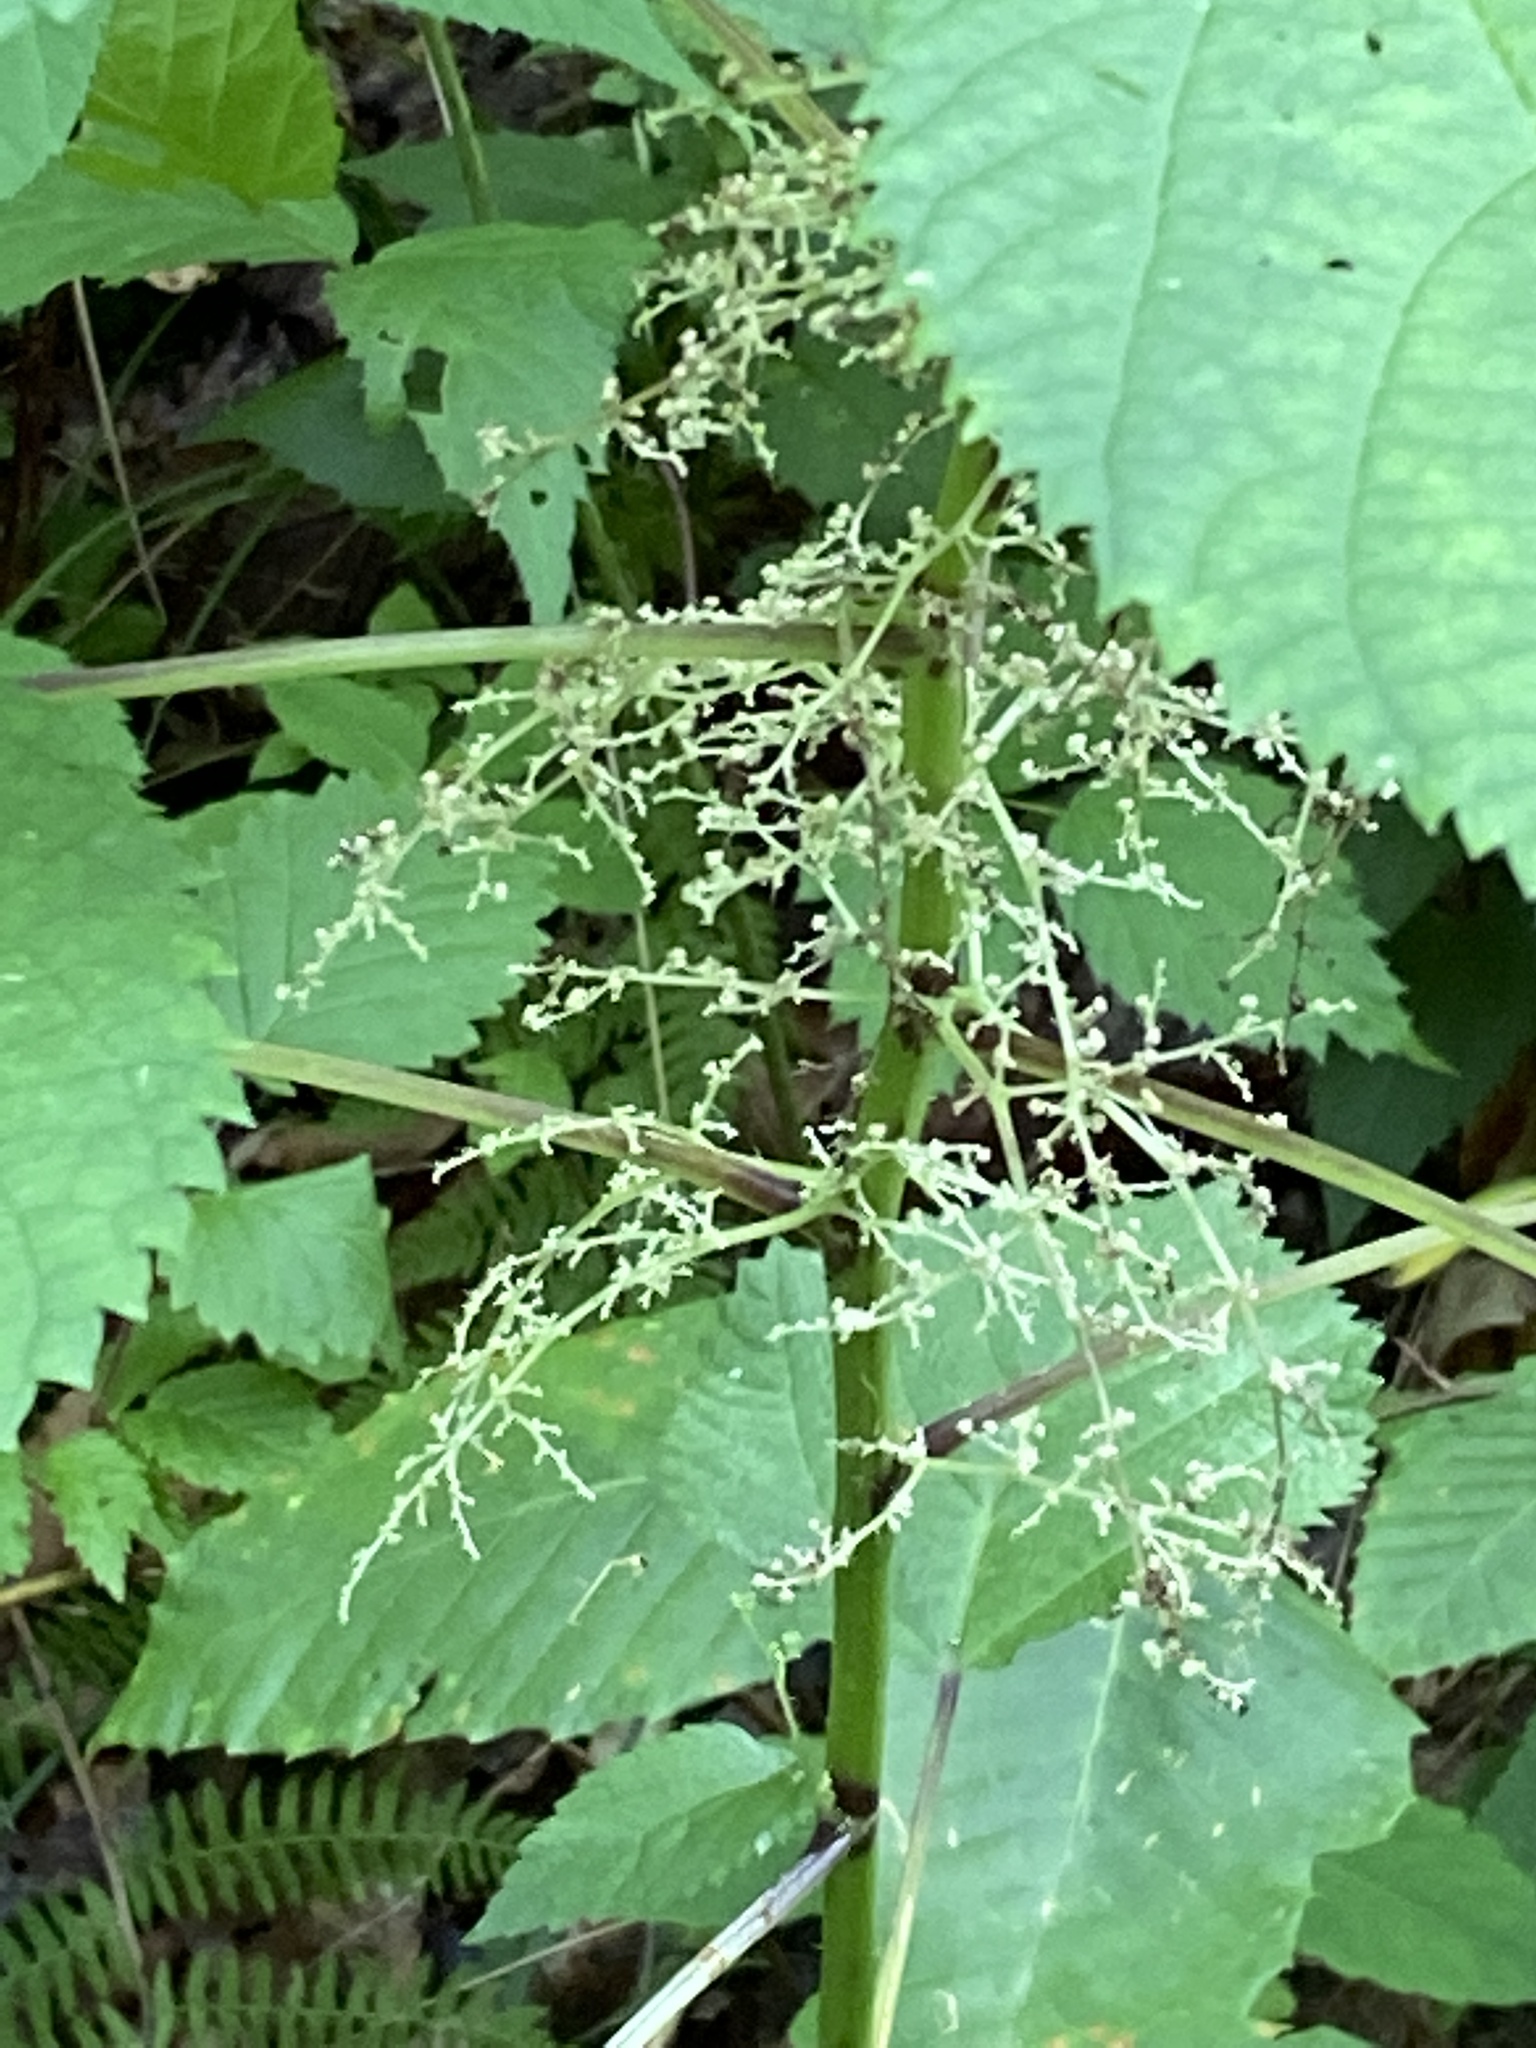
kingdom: Plantae
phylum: Tracheophyta
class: Magnoliopsida
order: Rosales
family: Urticaceae
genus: Laportea
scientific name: Laportea canadensis
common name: Canada nettle
